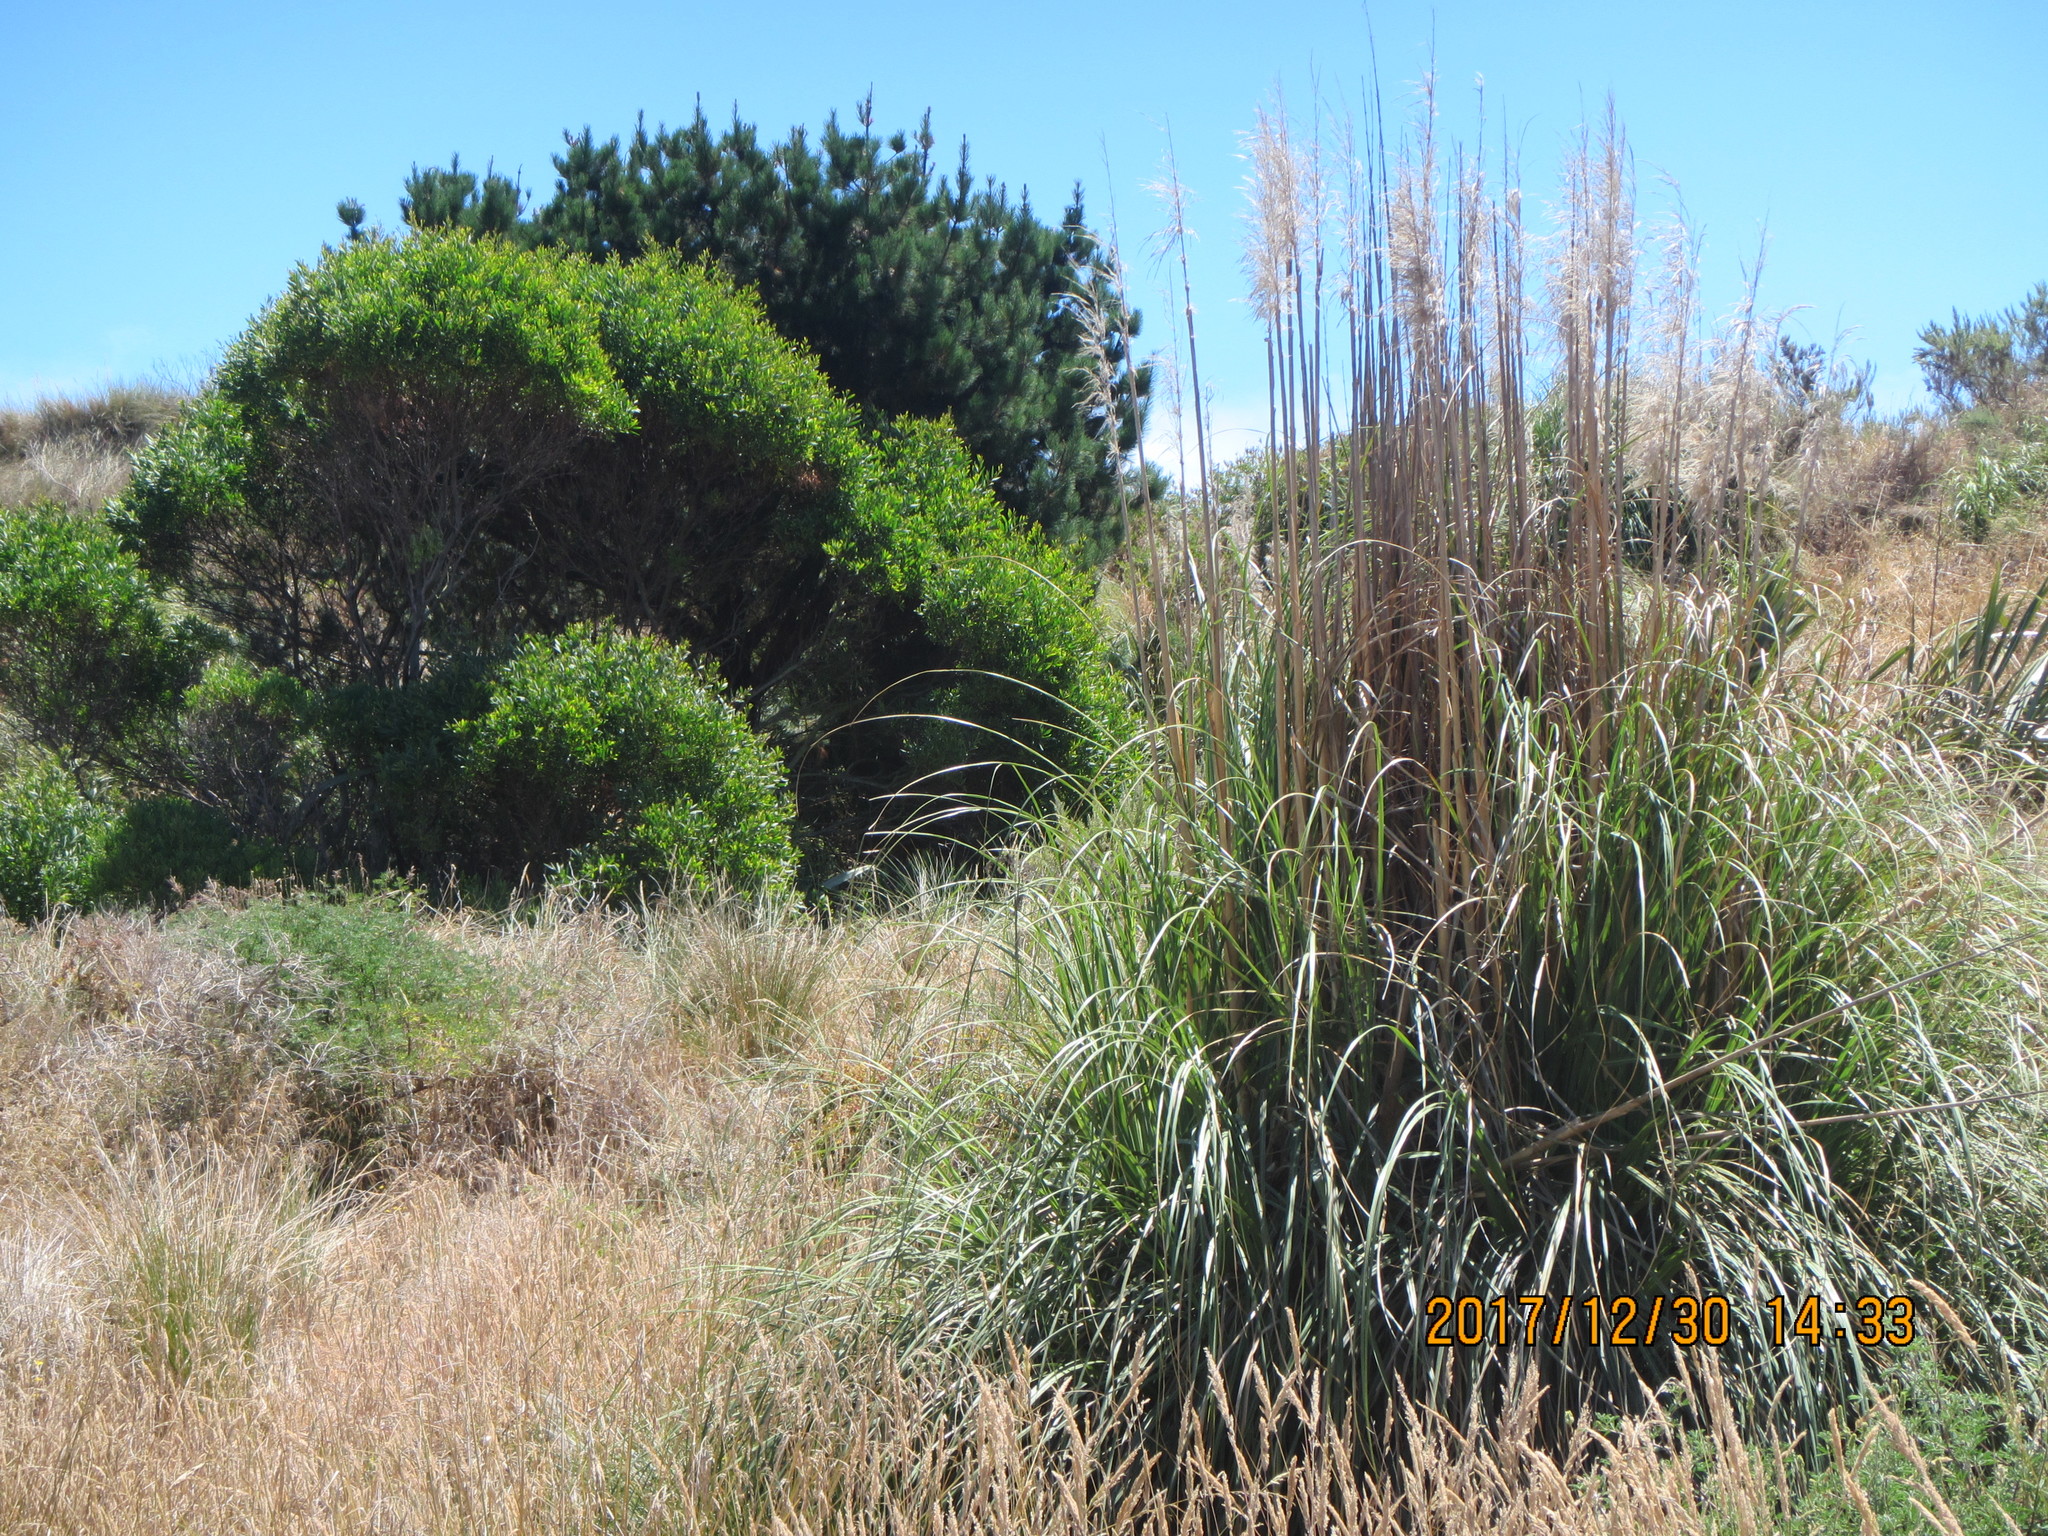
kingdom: Plantae
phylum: Tracheophyta
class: Pinopsida
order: Pinales
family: Pinaceae
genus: Pinus
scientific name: Pinus radiata
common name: Monterey pine
